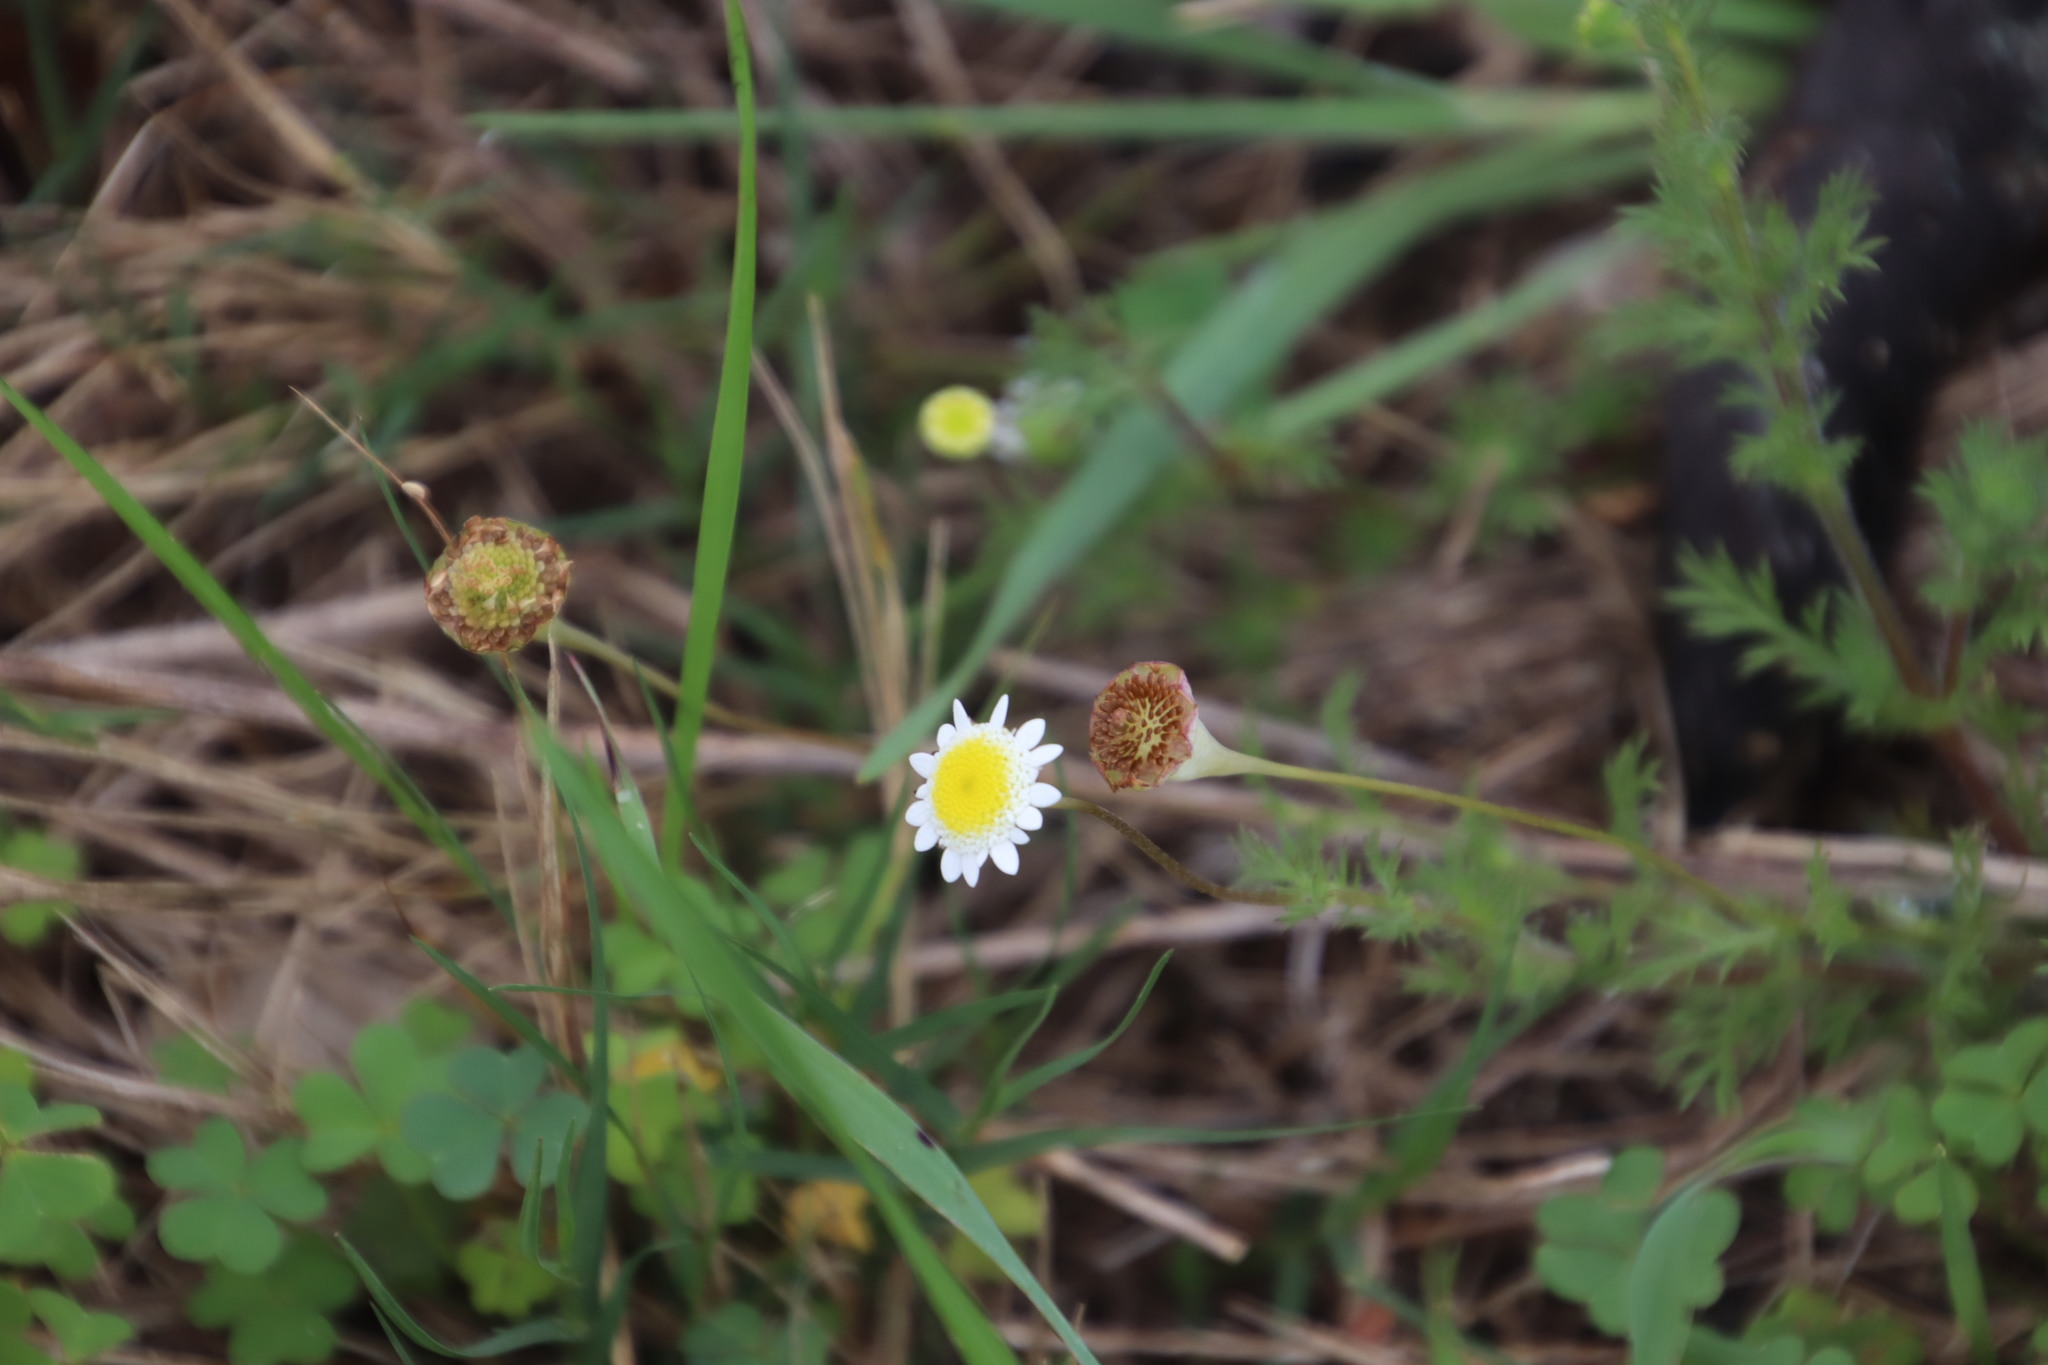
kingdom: Plantae
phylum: Tracheophyta
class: Magnoliopsida
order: Asterales
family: Asteraceae
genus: Cotula
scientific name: Cotula turbinata
